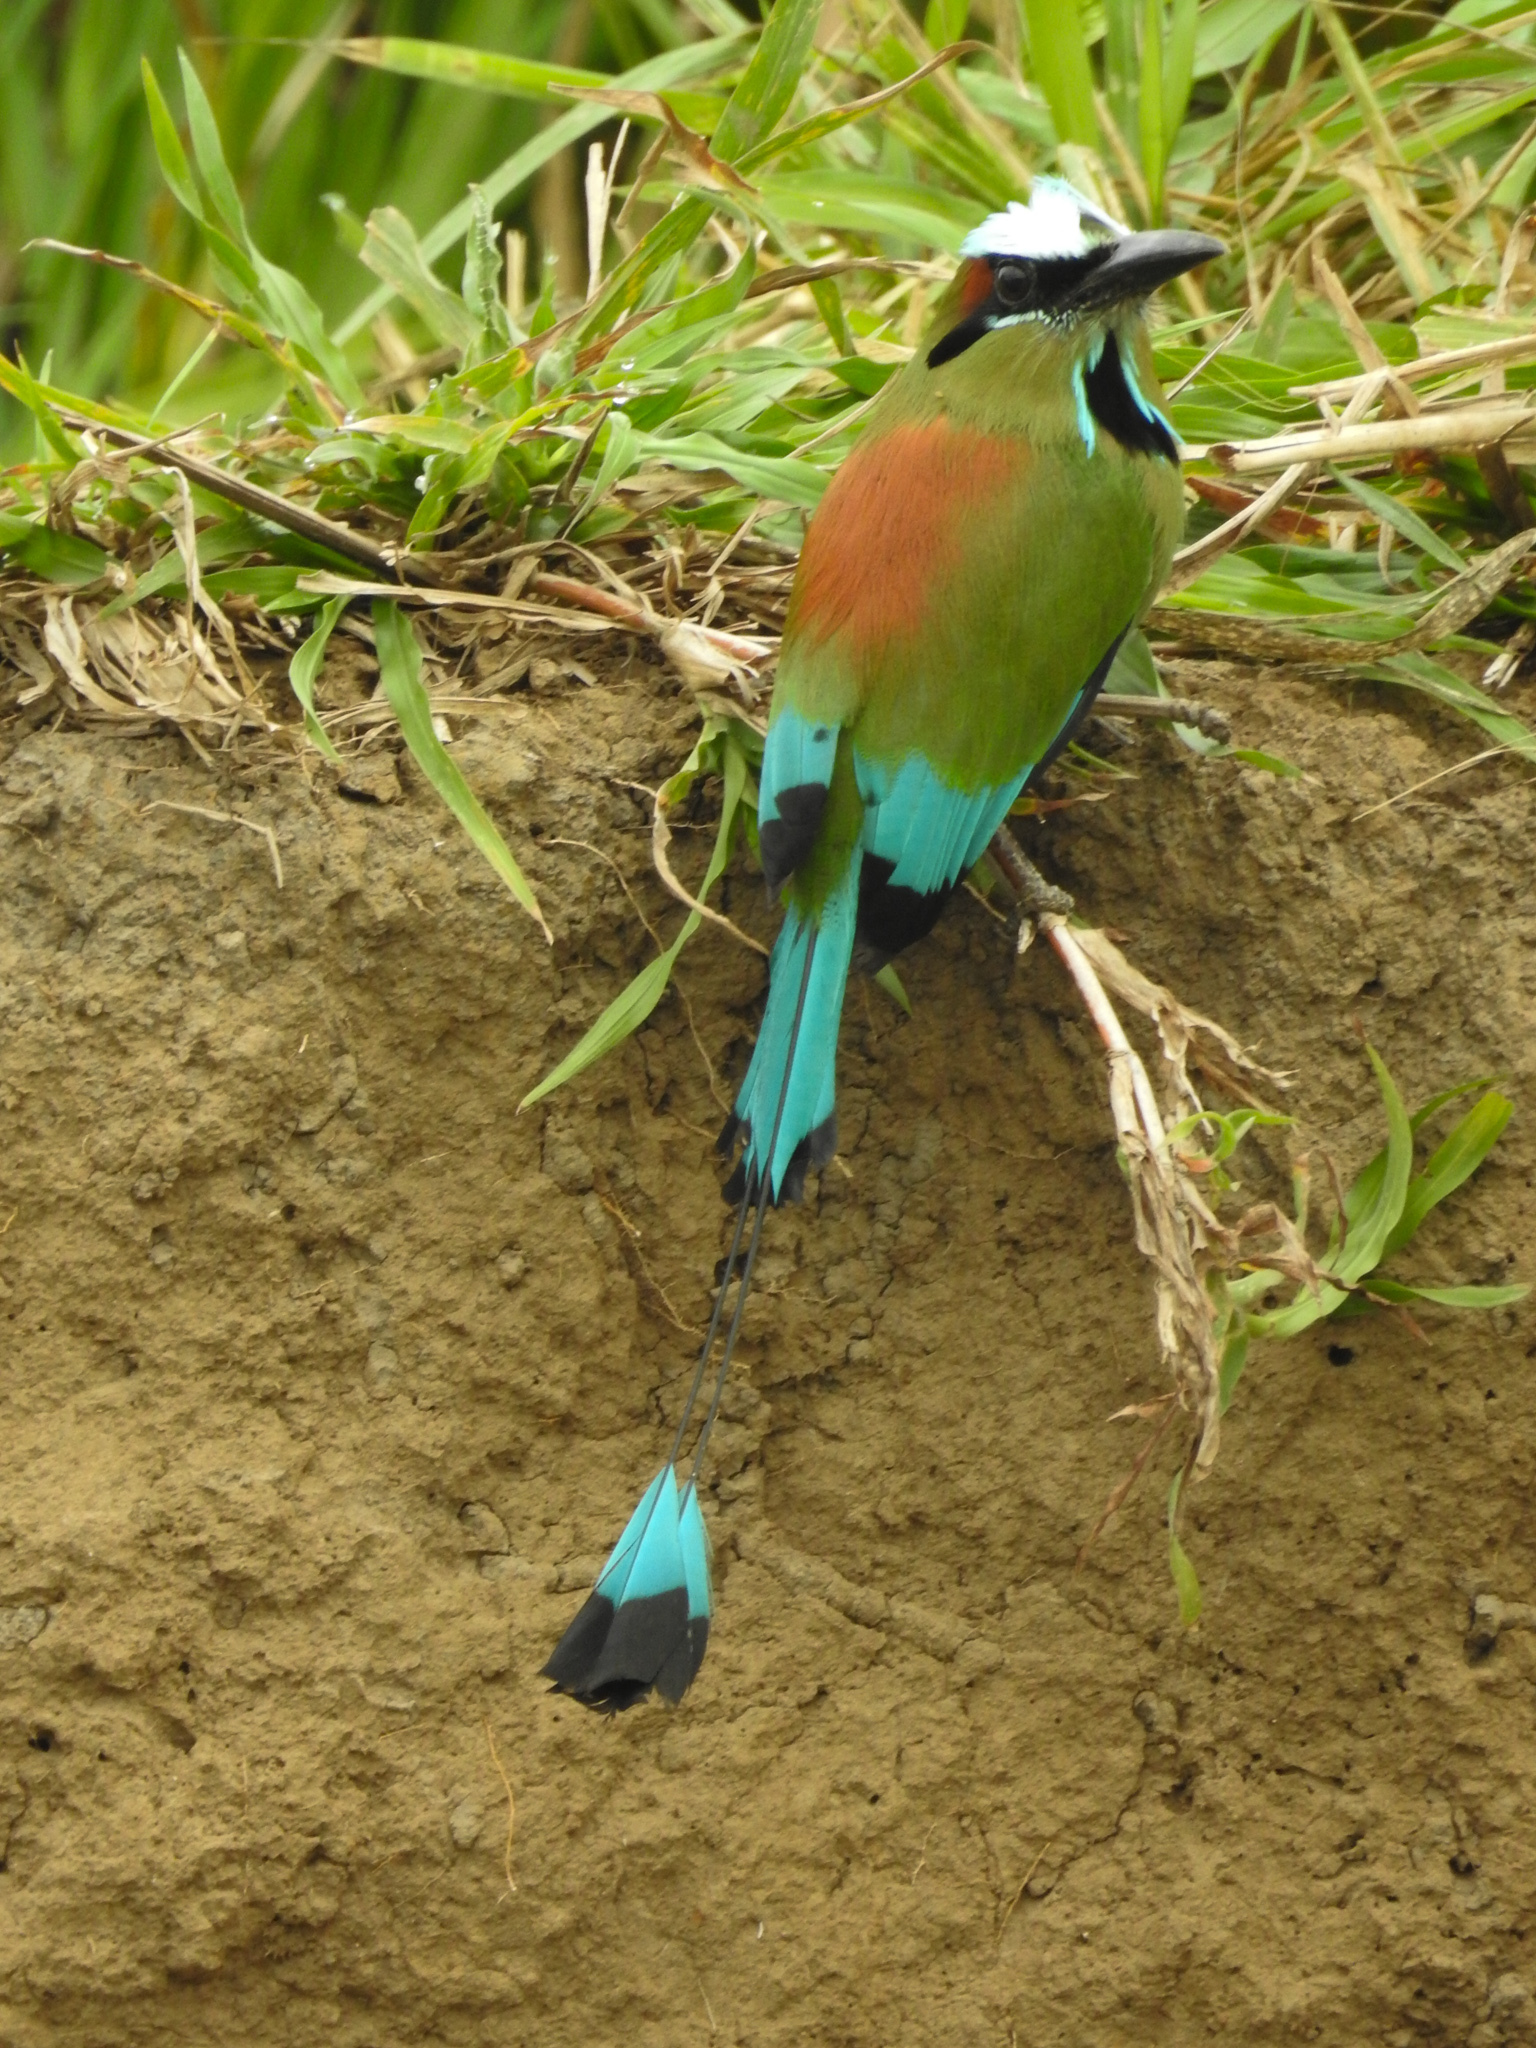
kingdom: Animalia
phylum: Chordata
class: Aves
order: Coraciiformes
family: Momotidae
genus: Eumomota
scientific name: Eumomota superciliosa
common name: Turquoise-browed motmot
